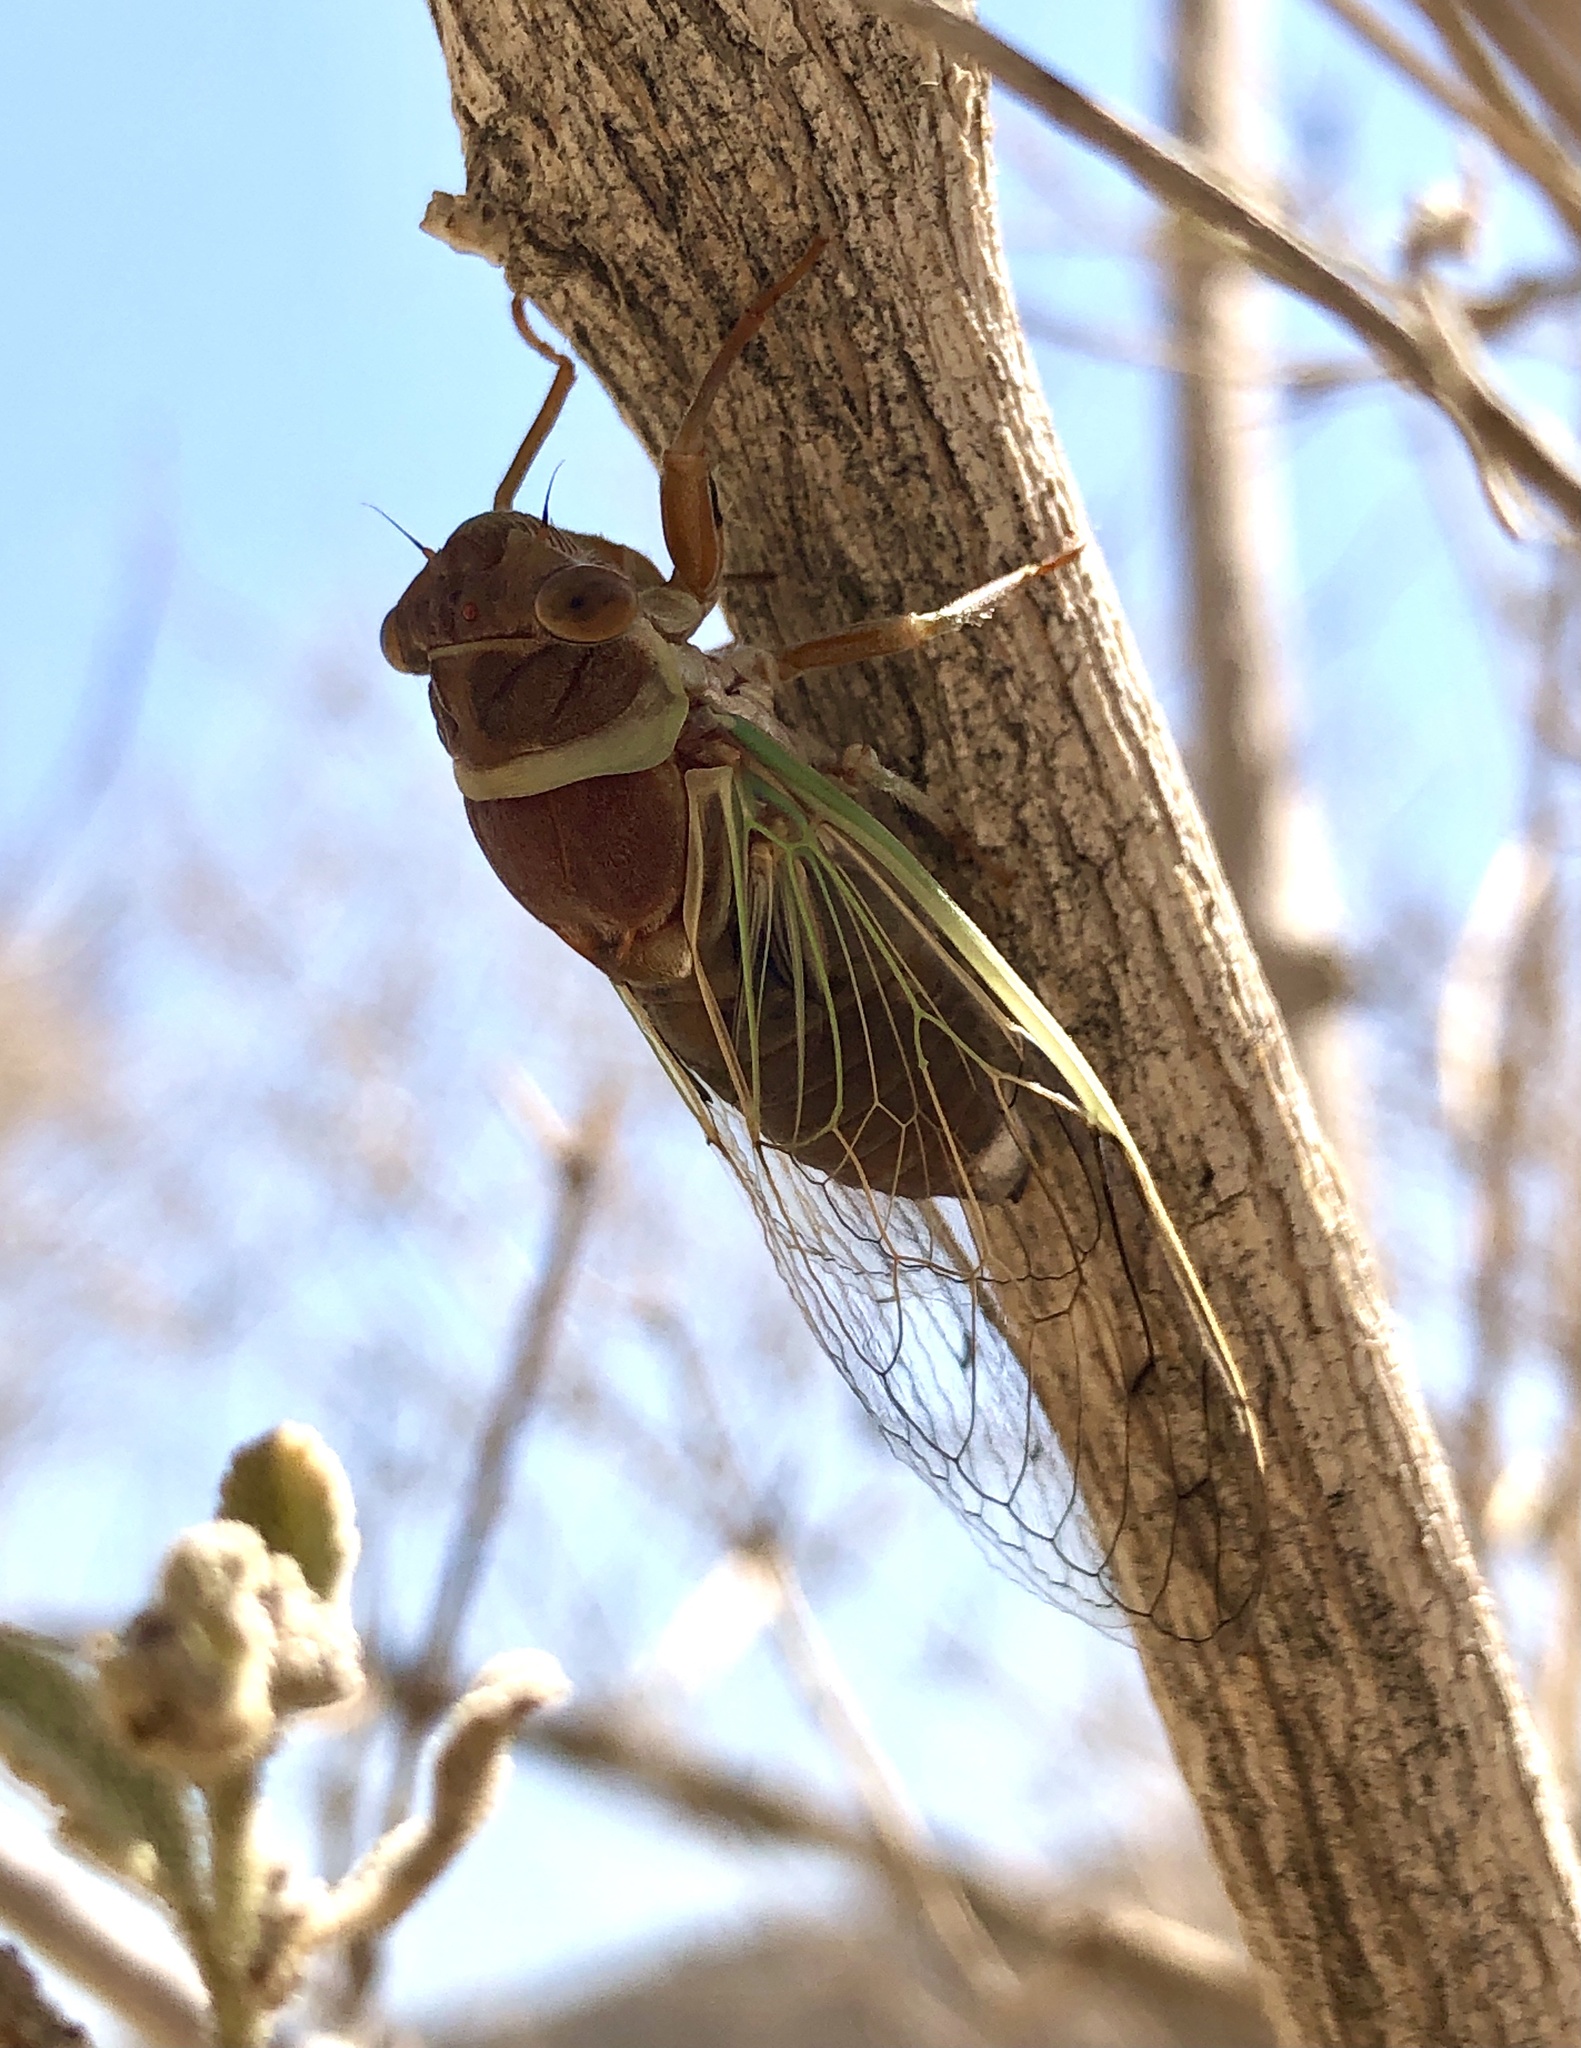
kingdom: Animalia
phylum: Arthropoda
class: Insecta
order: Hemiptera
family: Cicadidae
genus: Diceroprocta
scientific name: Diceroprocta apache
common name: Desert cicada
